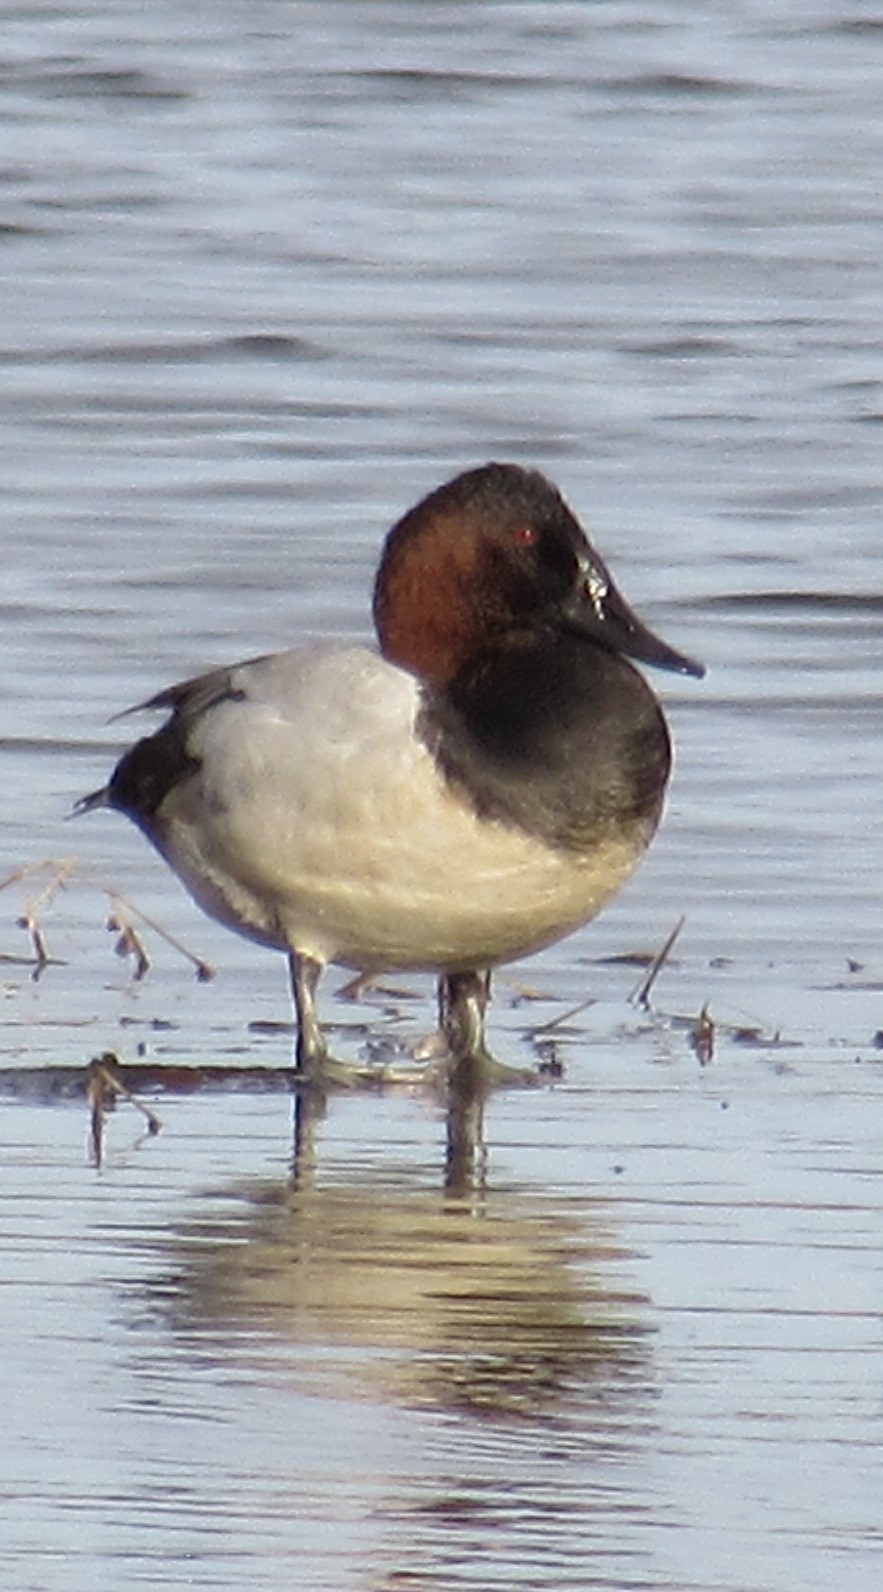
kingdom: Animalia
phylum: Chordata
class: Aves
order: Anseriformes
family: Anatidae
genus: Aythya
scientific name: Aythya valisineria
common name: Canvasback
